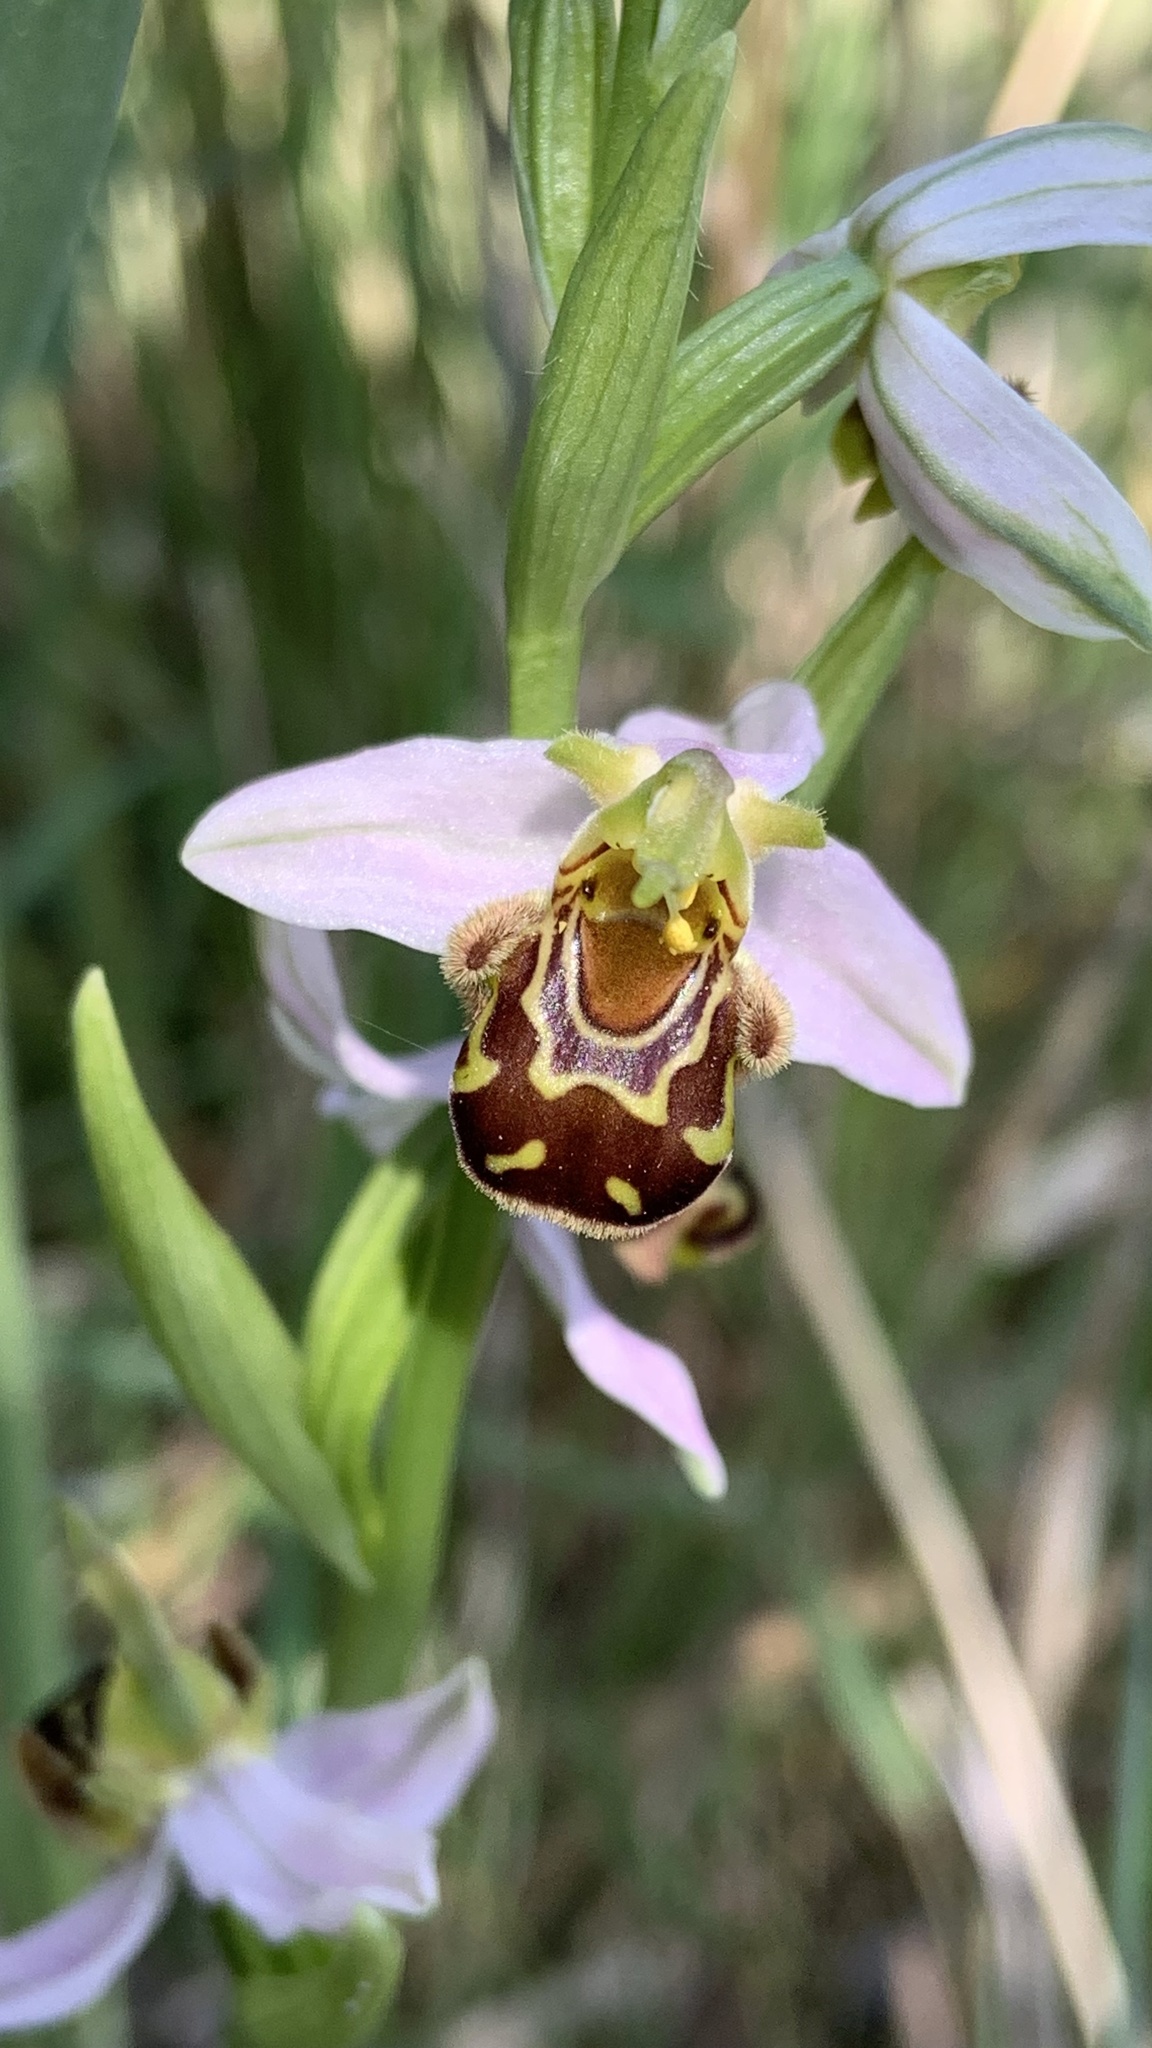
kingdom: Plantae
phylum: Tracheophyta
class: Liliopsida
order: Asparagales
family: Orchidaceae
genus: Ophrys
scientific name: Ophrys apifera
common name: Bee orchid
